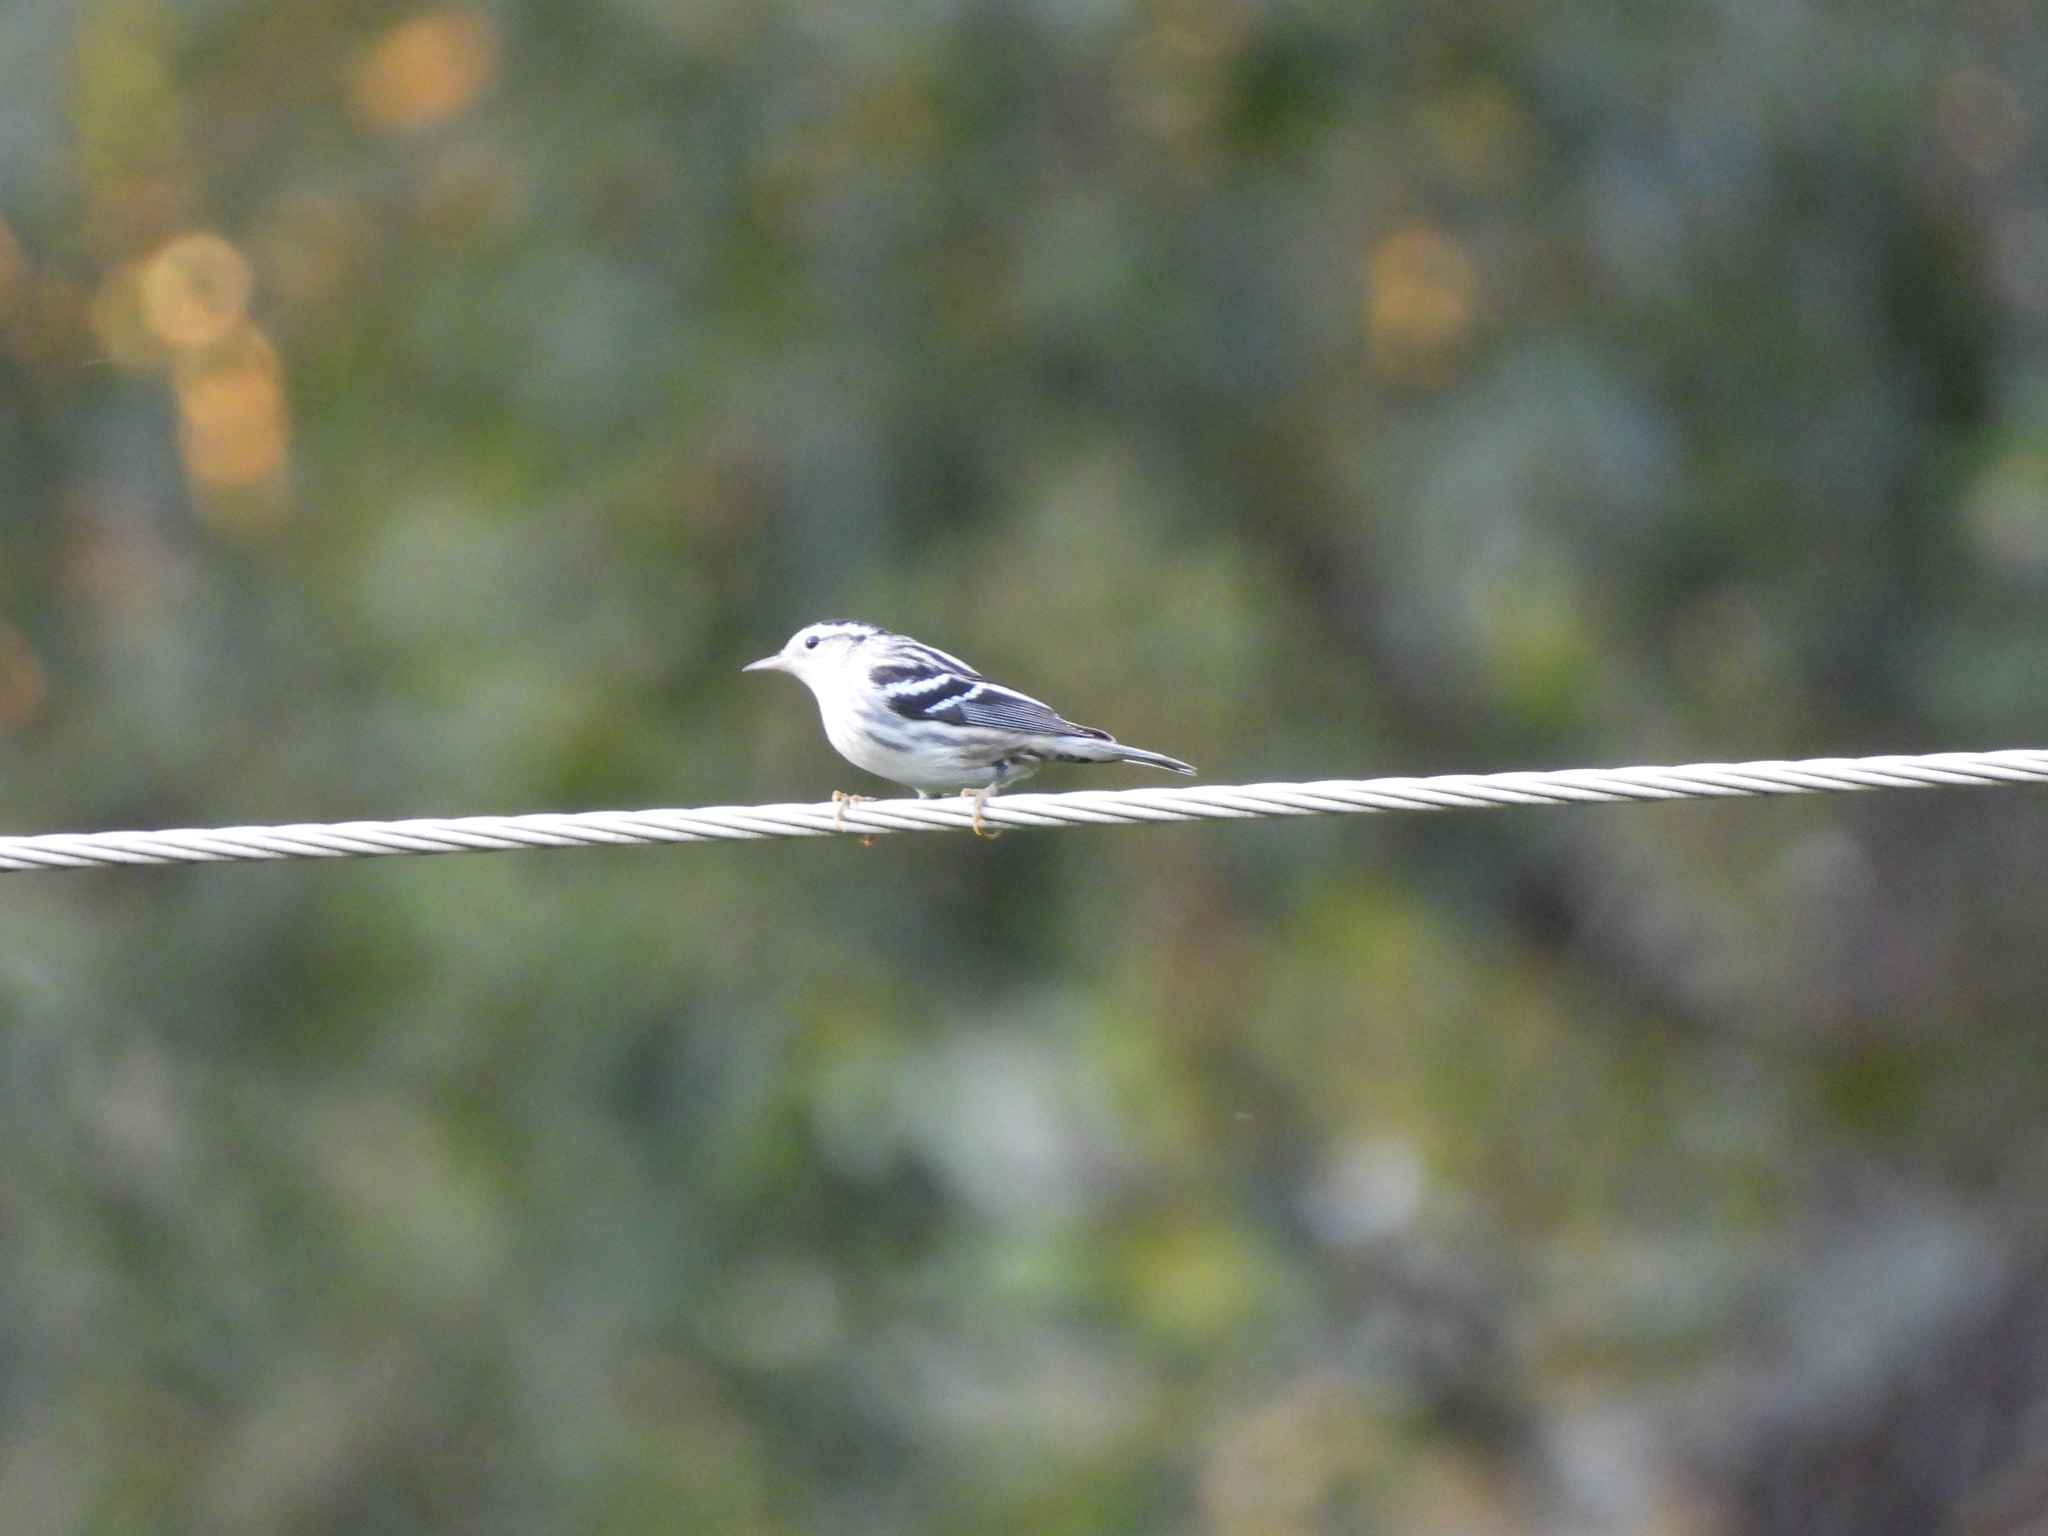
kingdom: Animalia
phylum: Chordata
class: Aves
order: Passeriformes
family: Parulidae
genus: Mniotilta
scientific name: Mniotilta varia
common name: Black-and-white warbler
